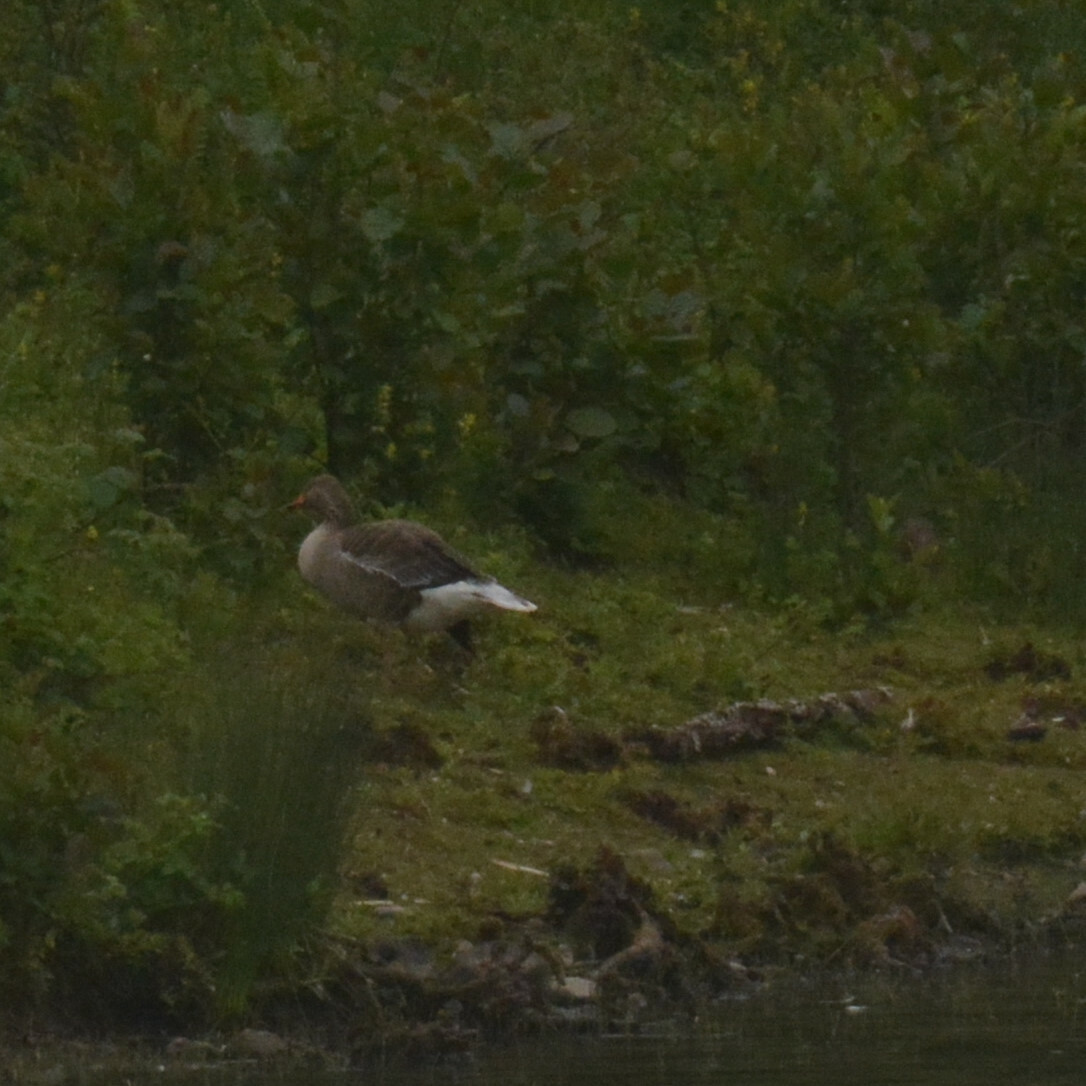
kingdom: Animalia
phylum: Chordata
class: Aves
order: Anseriformes
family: Anatidae
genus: Anser
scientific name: Anser anser
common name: Greylag goose
